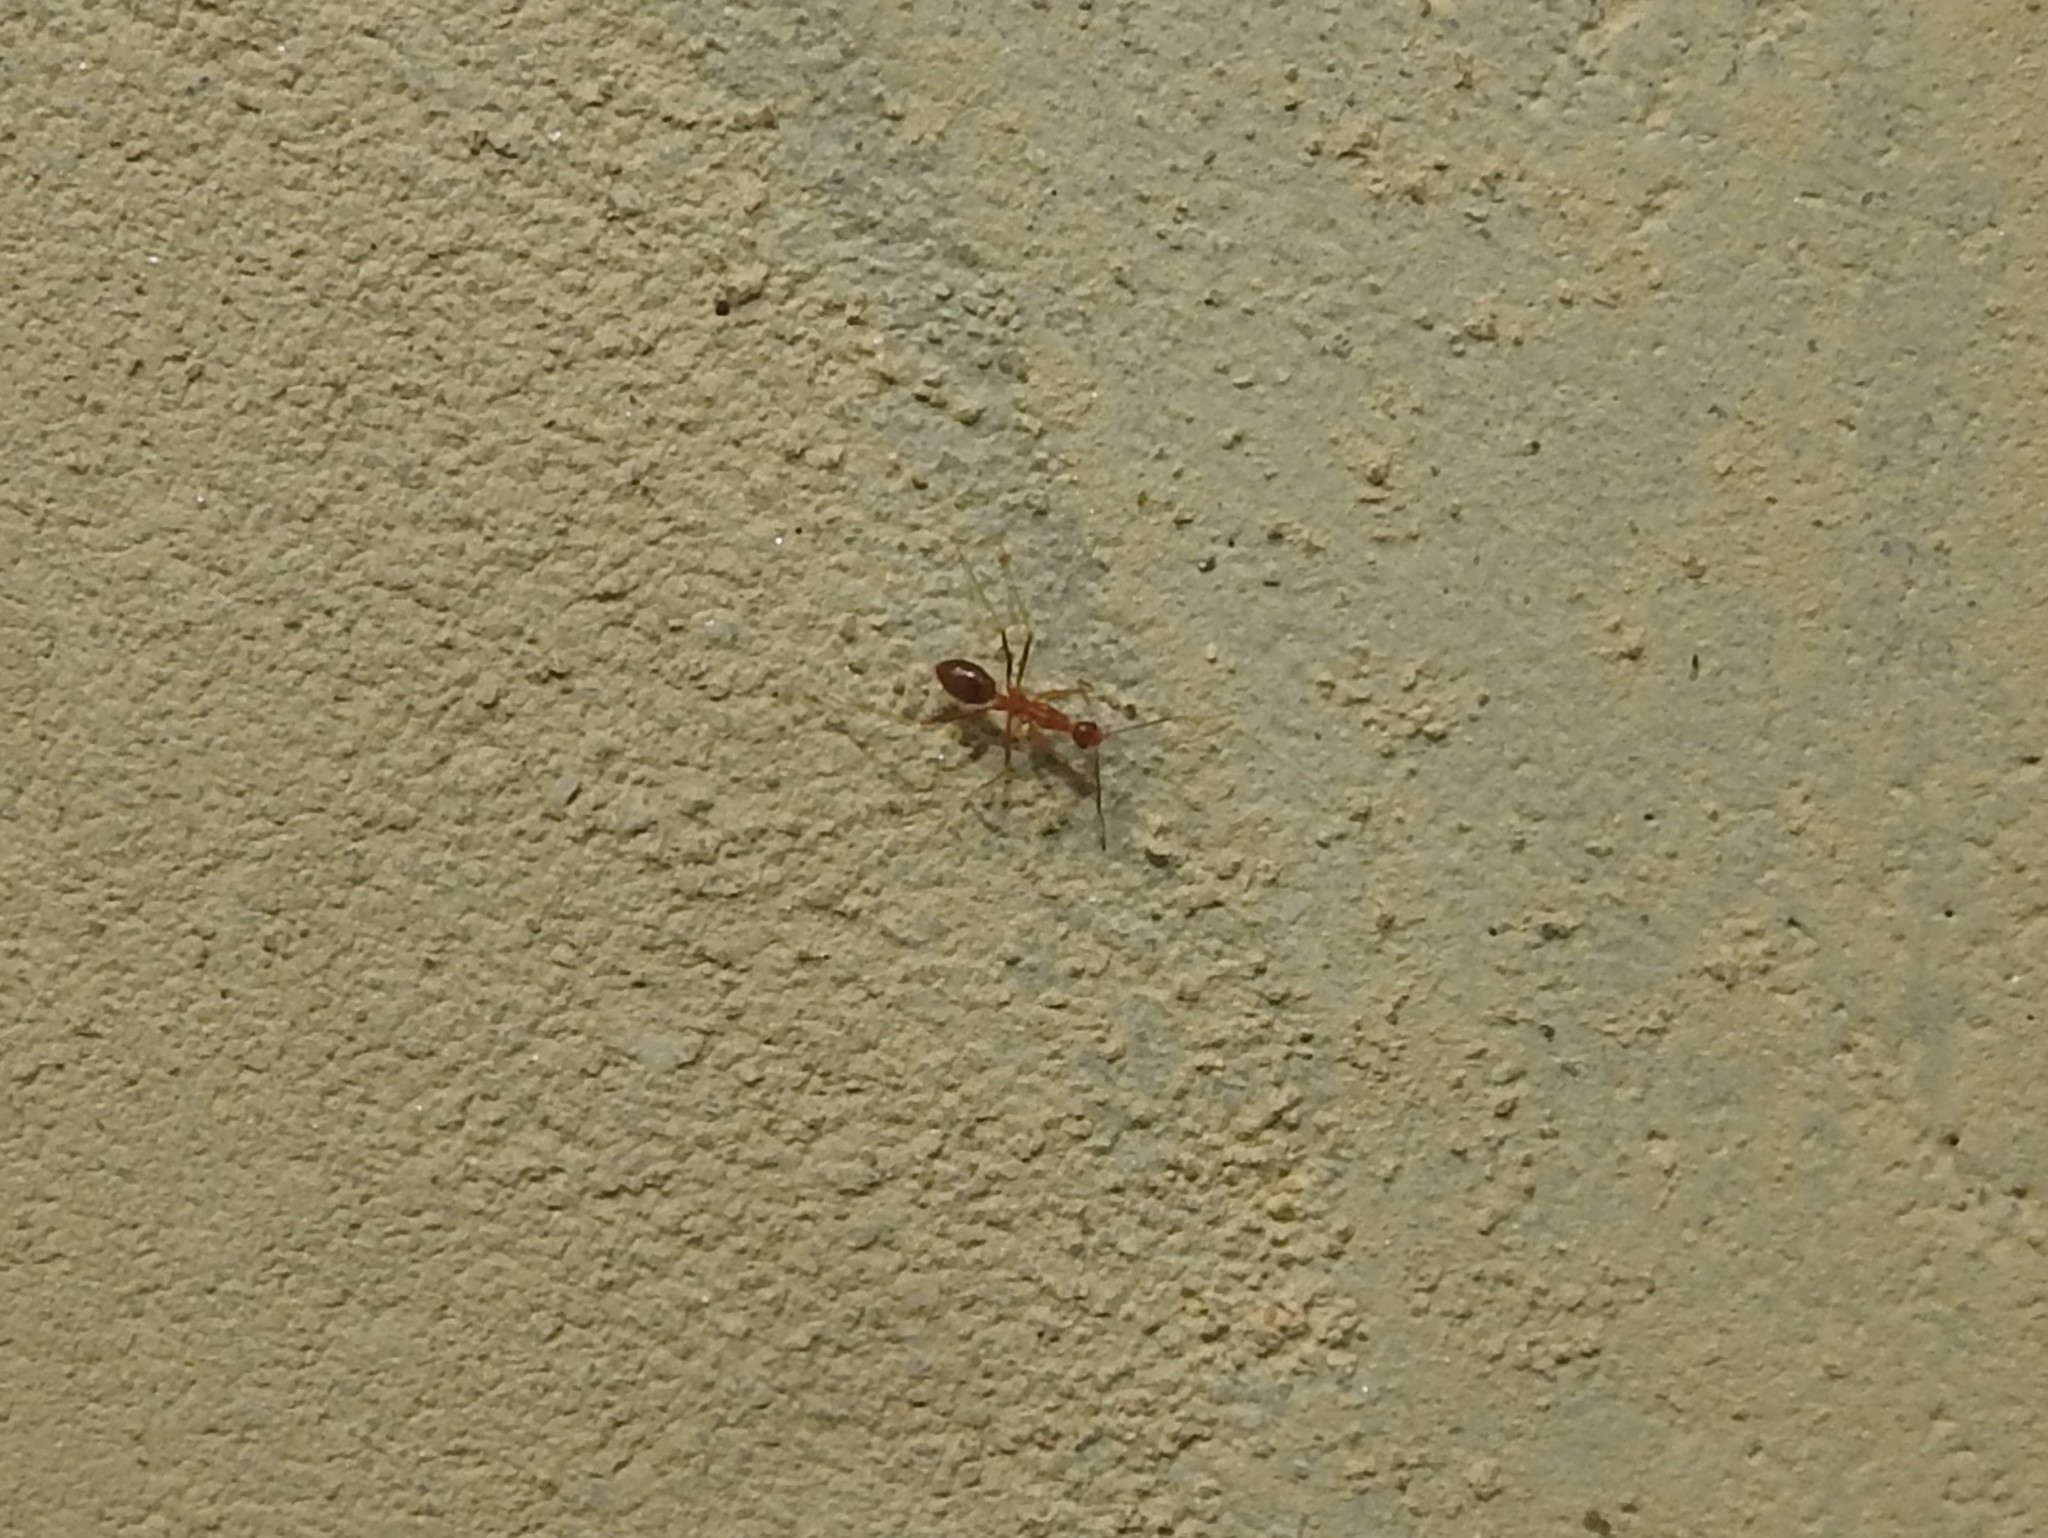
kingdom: Animalia
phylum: Arthropoda
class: Insecta
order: Hymenoptera
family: Formicidae
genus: Anoplolepis
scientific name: Anoplolepis gracilipes
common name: Ant
